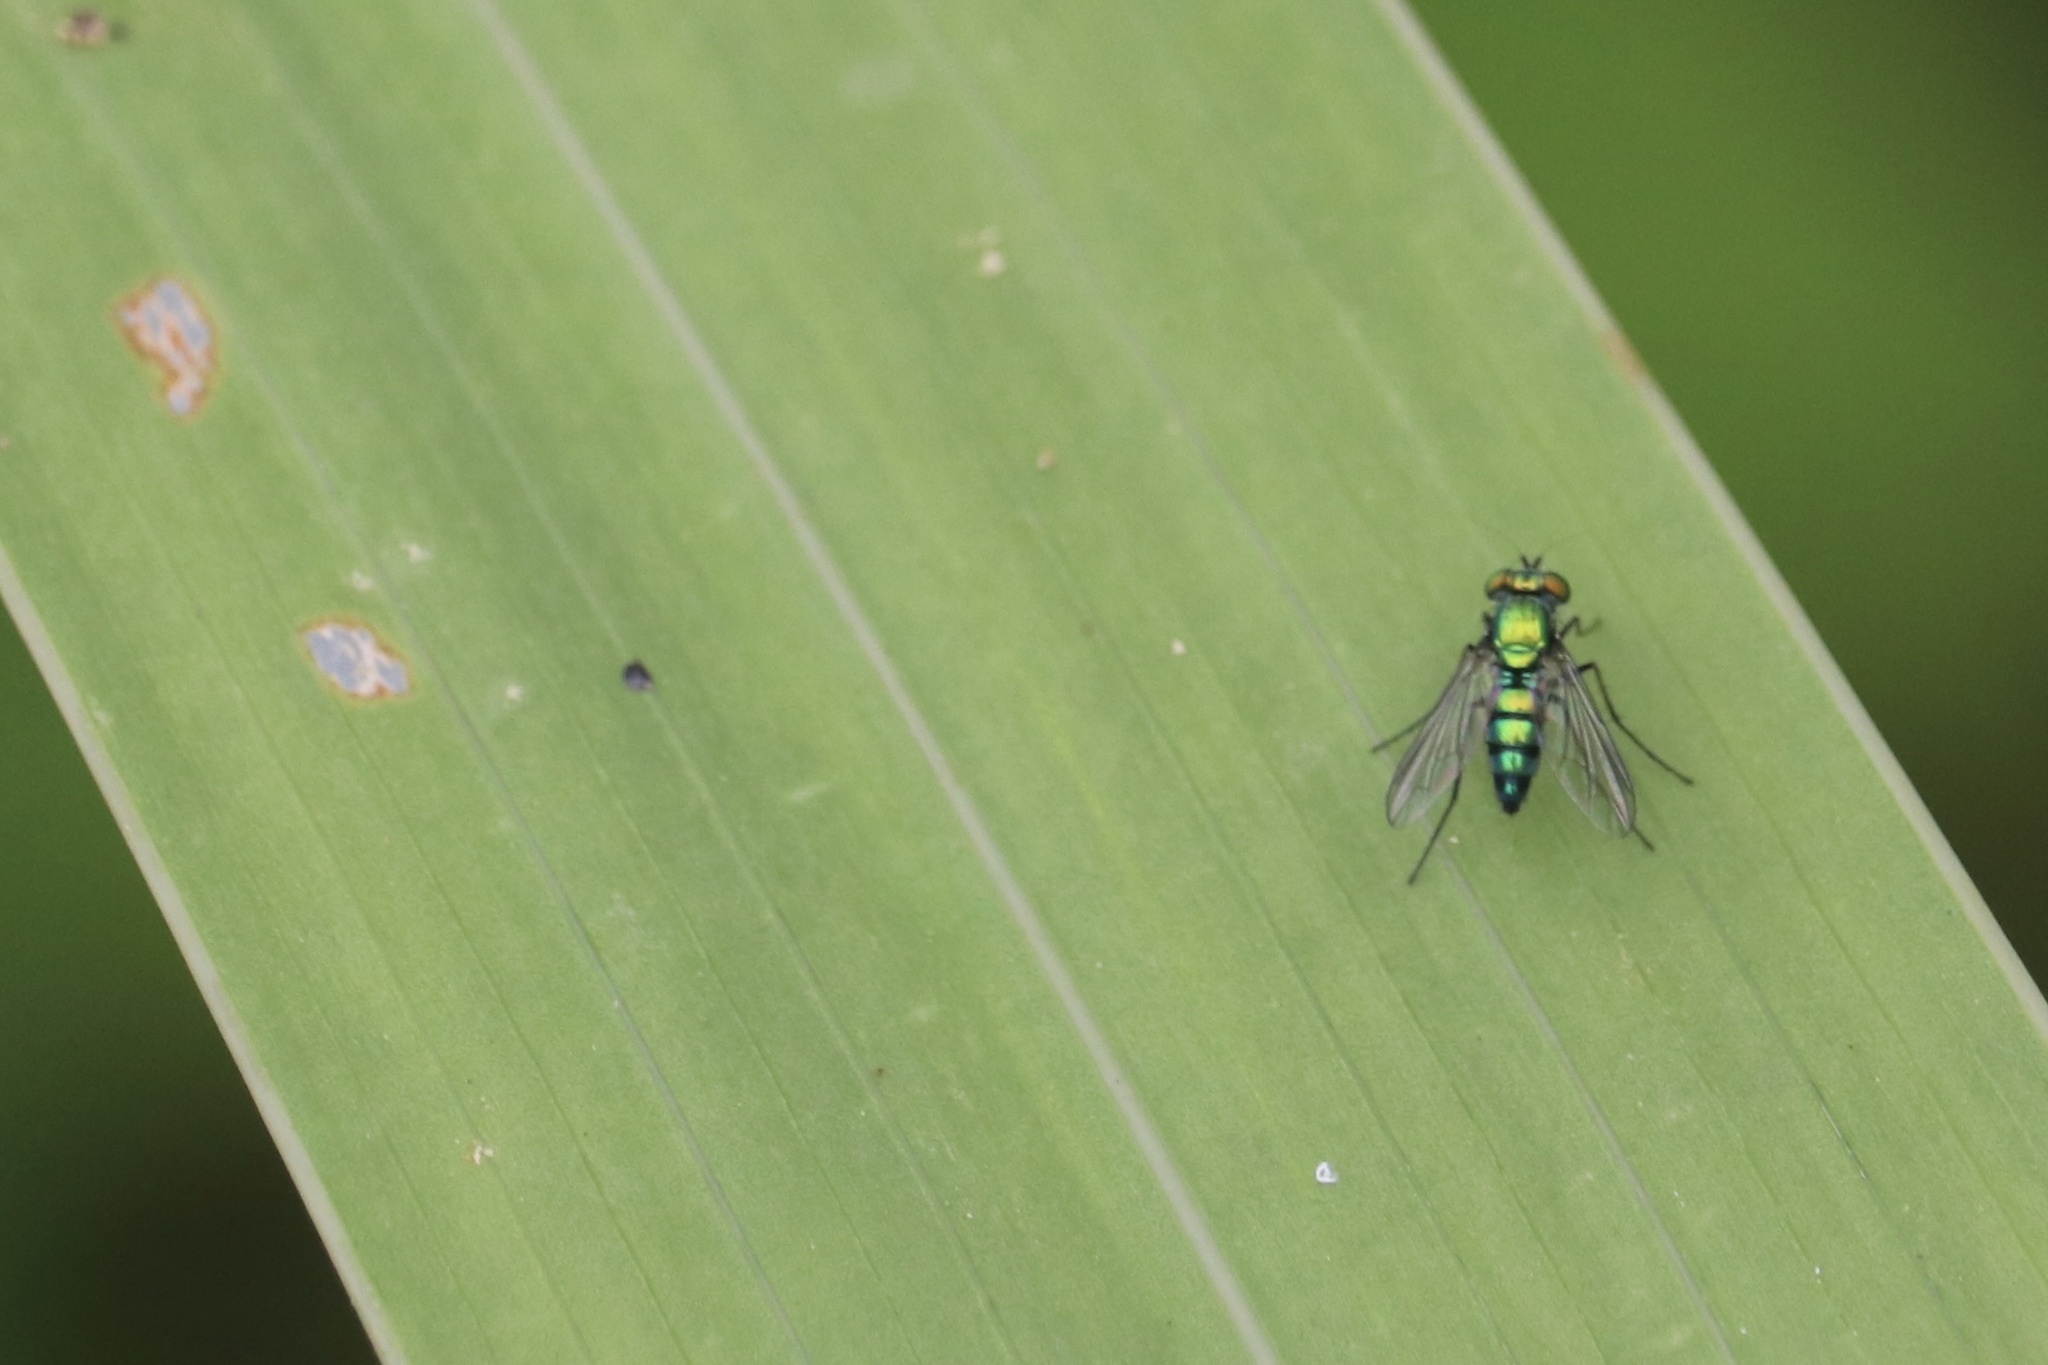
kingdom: Animalia
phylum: Arthropoda
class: Insecta
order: Diptera
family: Dolichopodidae
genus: Condylostylus
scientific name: Condylostylus longicornis
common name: Long-legged fly
